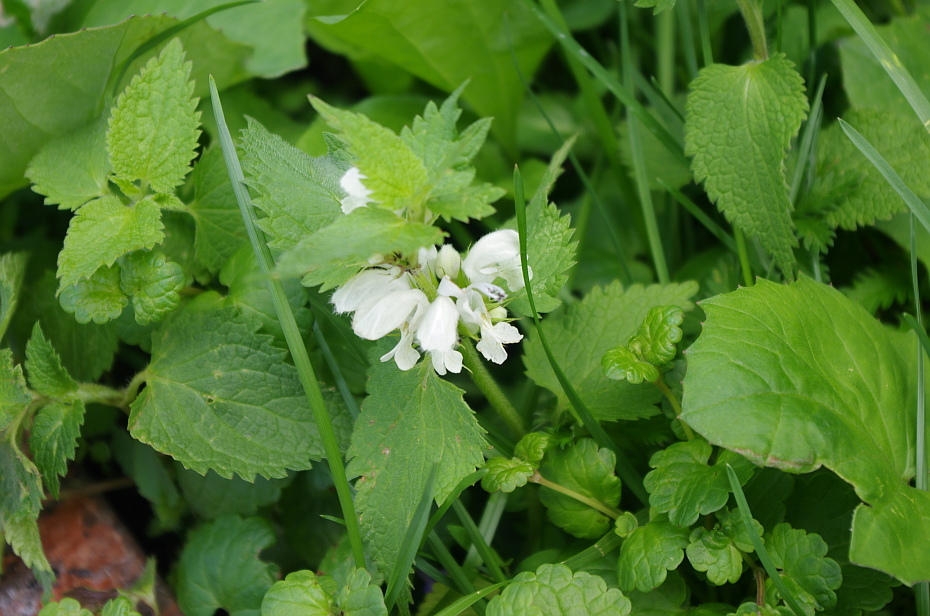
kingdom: Plantae
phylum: Tracheophyta
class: Magnoliopsida
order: Lamiales
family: Lamiaceae
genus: Lamium
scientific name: Lamium album
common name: White dead-nettle
